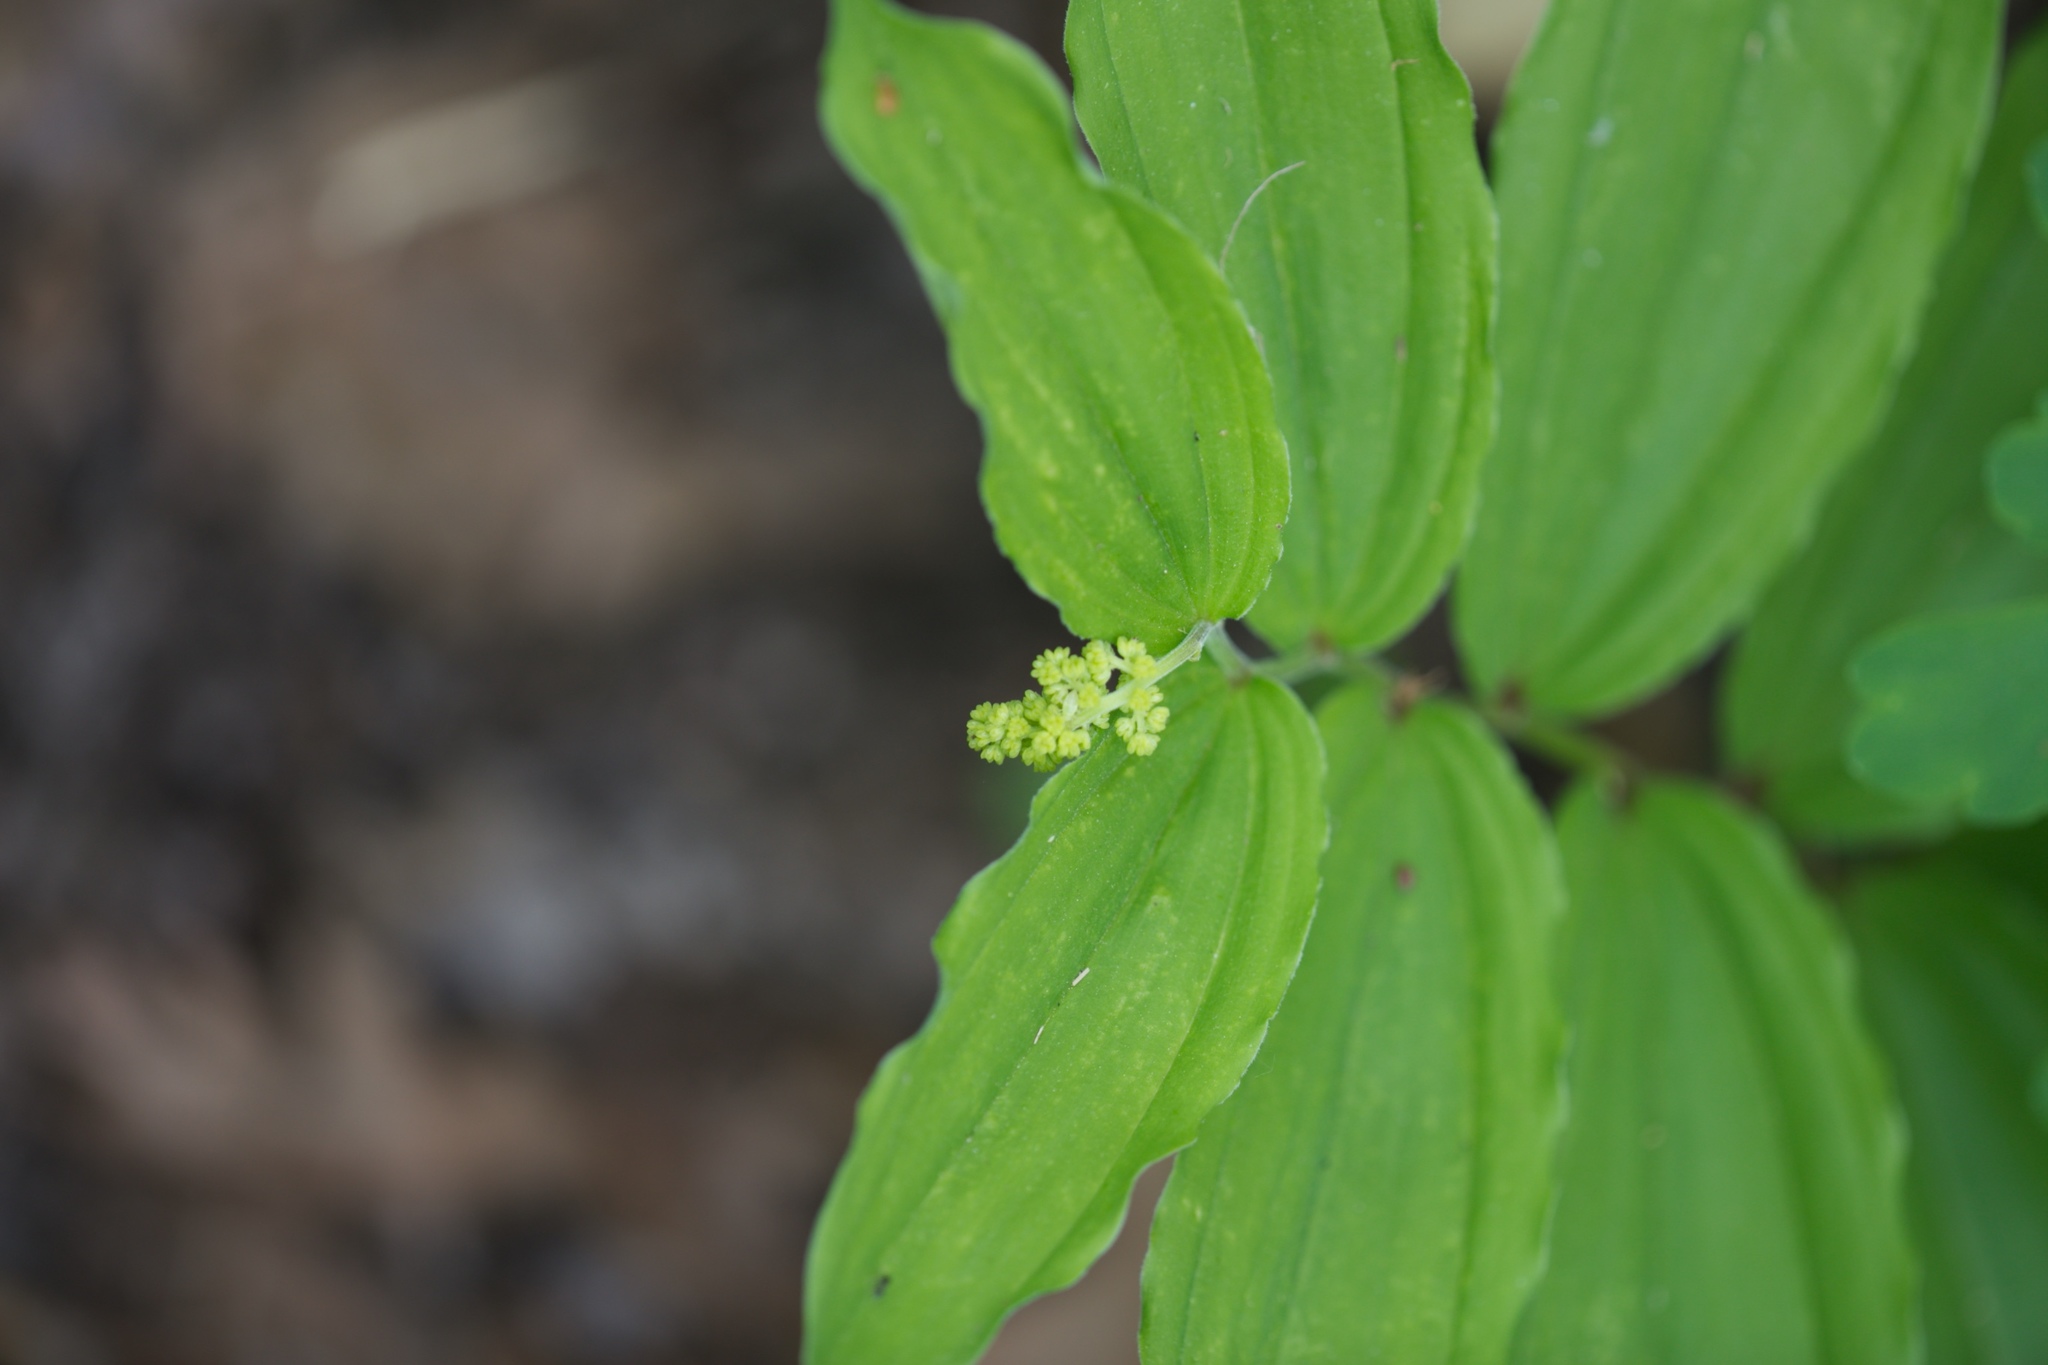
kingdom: Plantae
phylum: Tracheophyta
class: Liliopsida
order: Asparagales
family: Asparagaceae
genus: Maianthemum
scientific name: Maianthemum racemosum
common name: False spikenard
